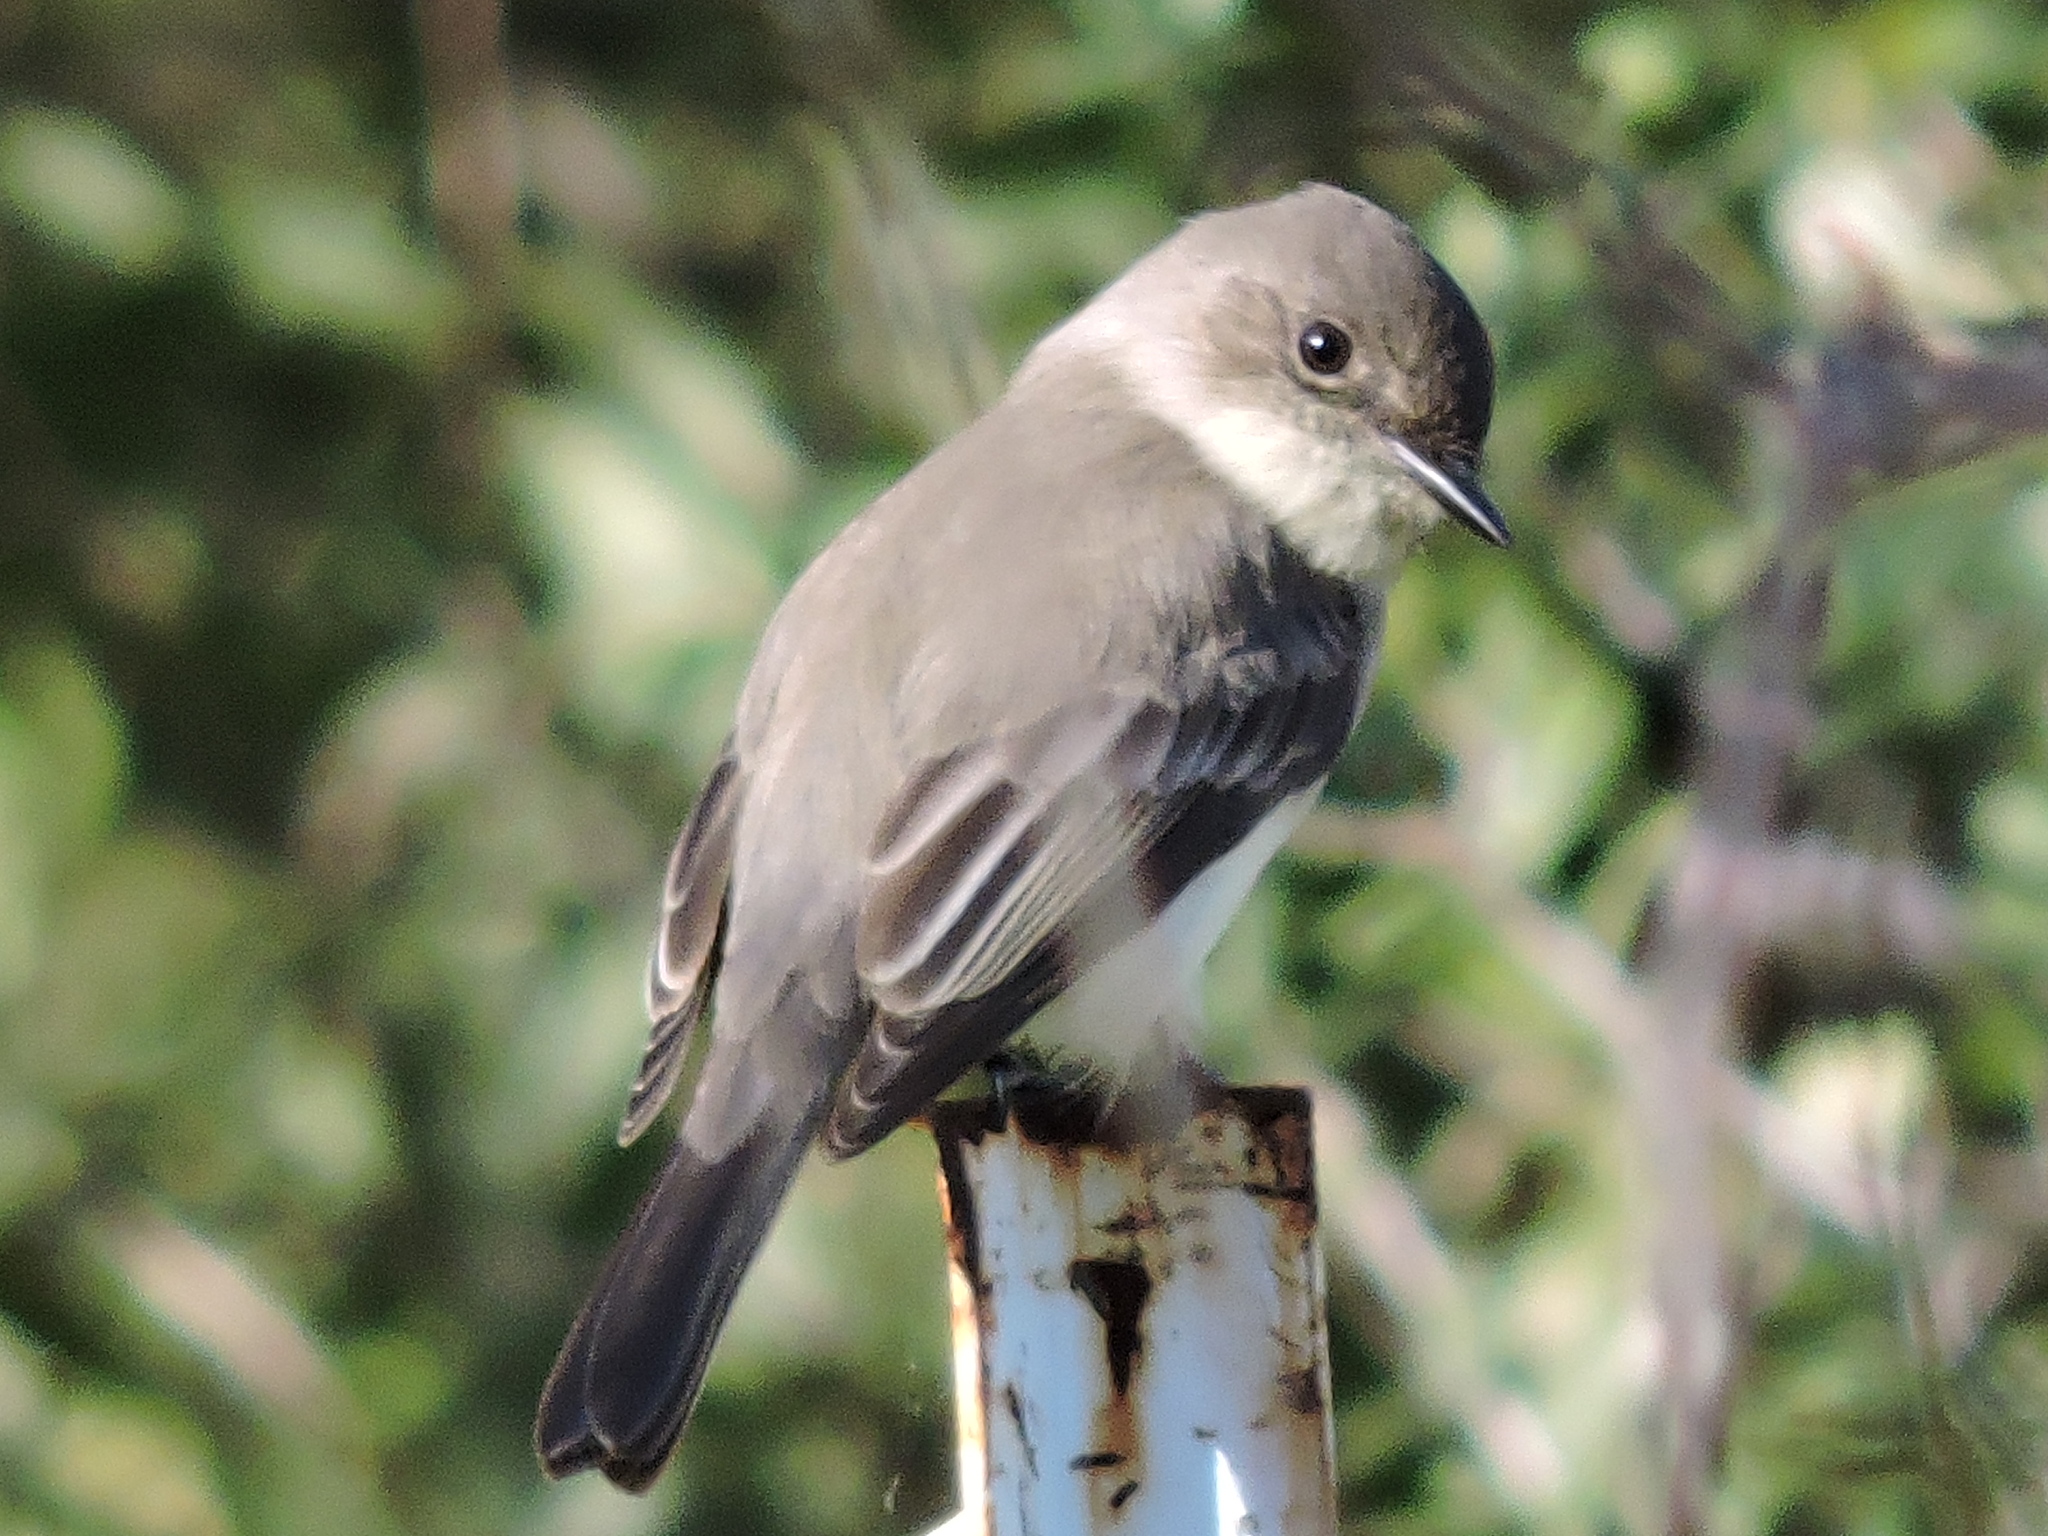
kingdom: Animalia
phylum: Chordata
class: Aves
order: Passeriformes
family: Tyrannidae
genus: Sayornis
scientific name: Sayornis phoebe
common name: Eastern phoebe
